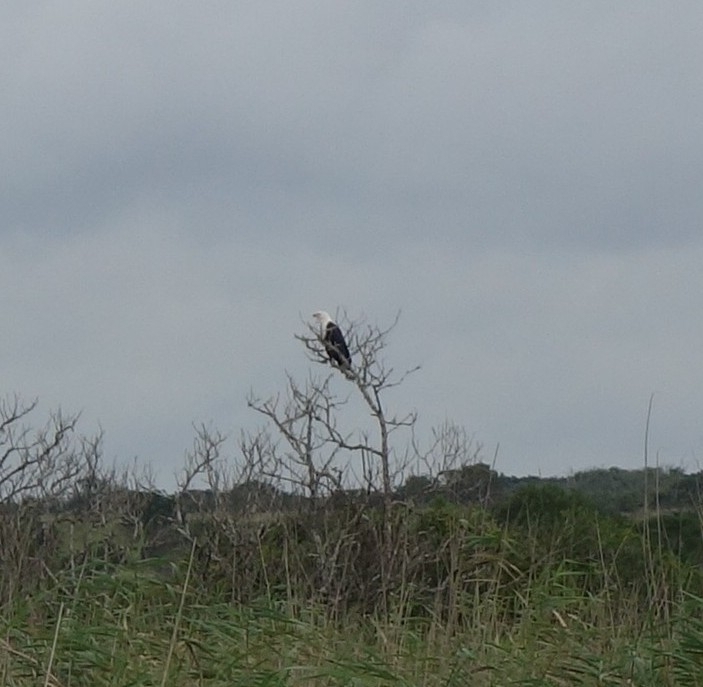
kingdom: Animalia
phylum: Chordata
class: Aves
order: Accipitriformes
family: Accipitridae
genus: Haliaeetus
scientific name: Haliaeetus vocifer
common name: African fish eagle
